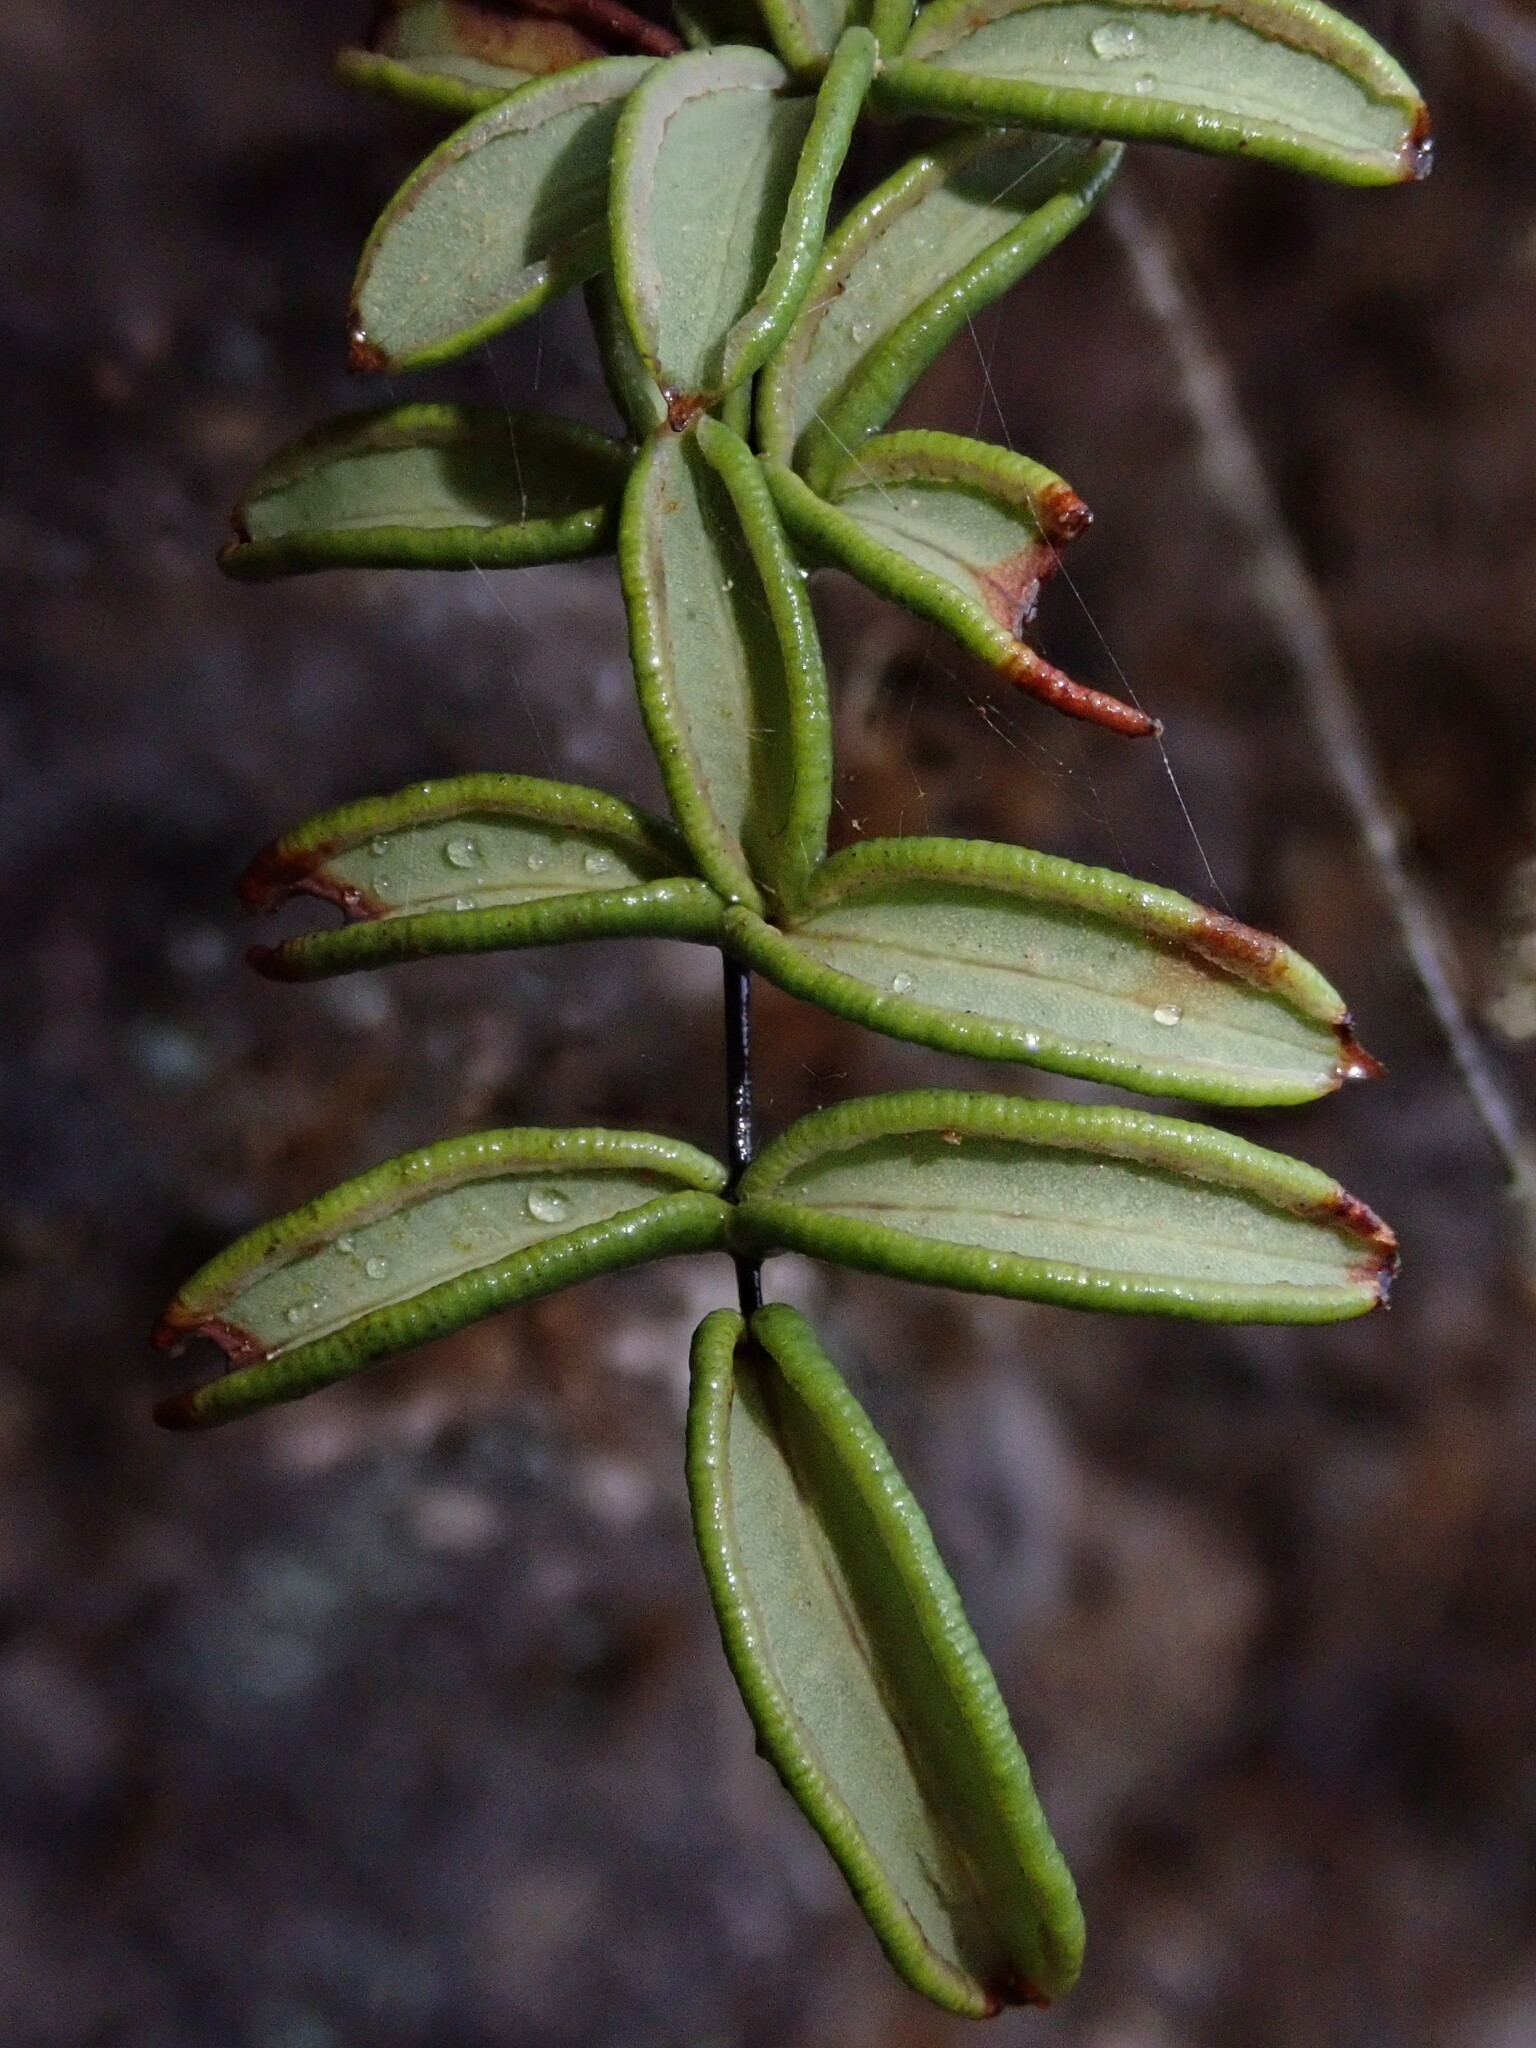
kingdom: Plantae
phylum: Tracheophyta
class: Polypodiopsida
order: Polypodiales
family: Pteridaceae
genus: Pellaea
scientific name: Pellaea ternifolia
